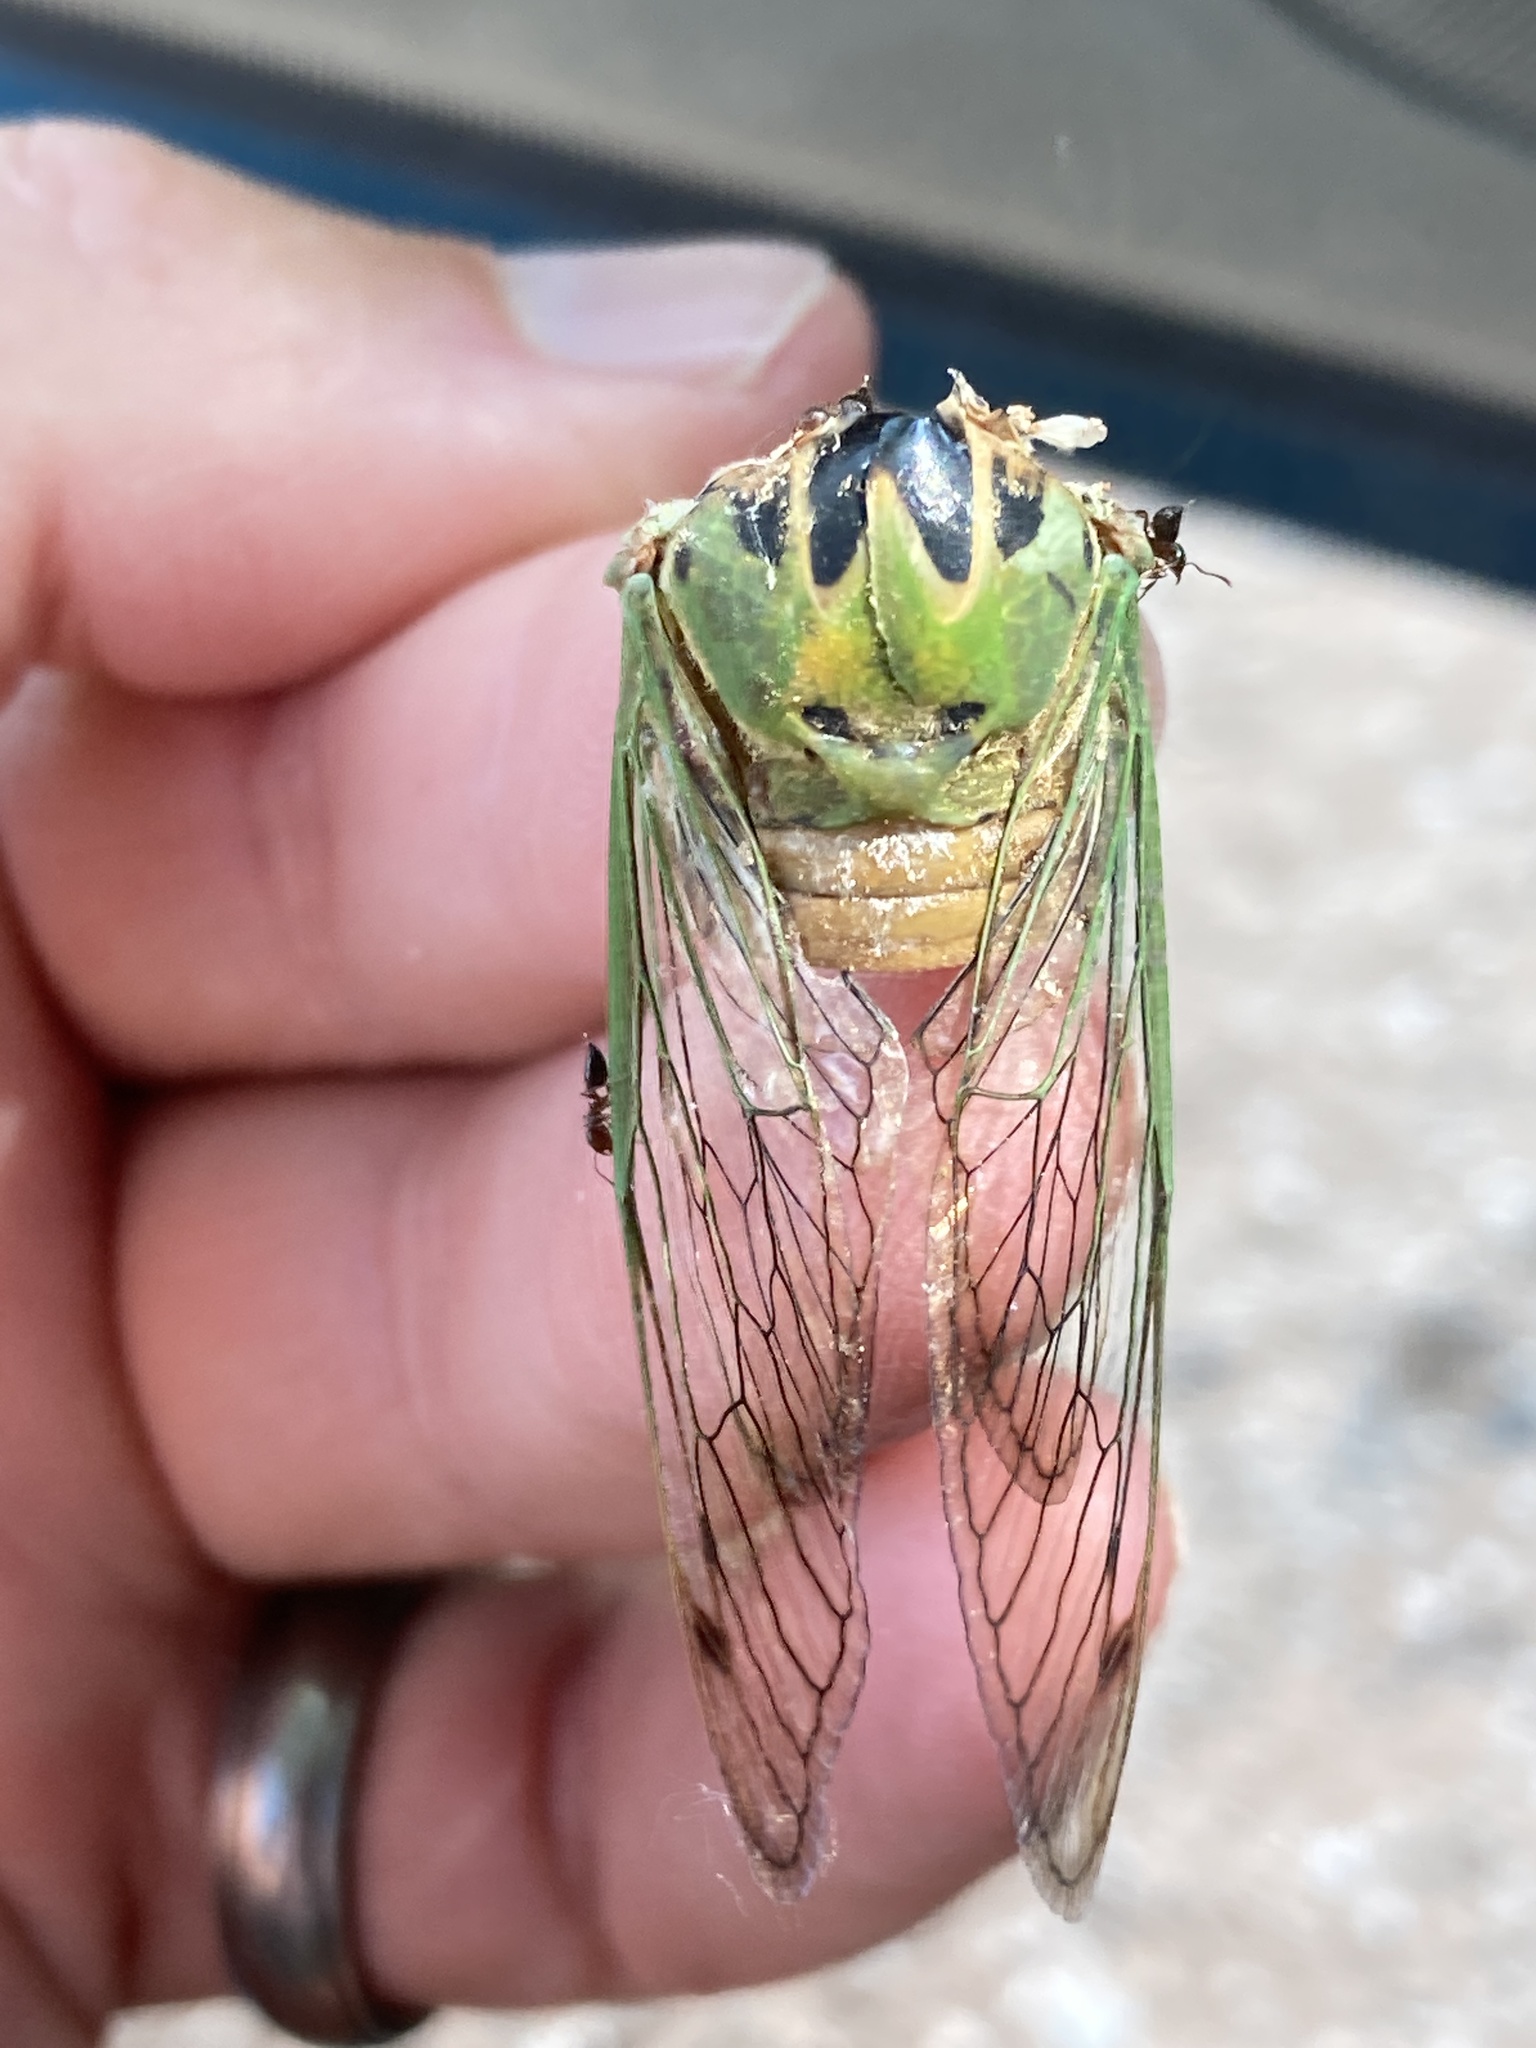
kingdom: Animalia
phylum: Arthropoda
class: Insecta
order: Hemiptera
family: Cicadidae
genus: Neotibicen
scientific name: Neotibicen superbus
